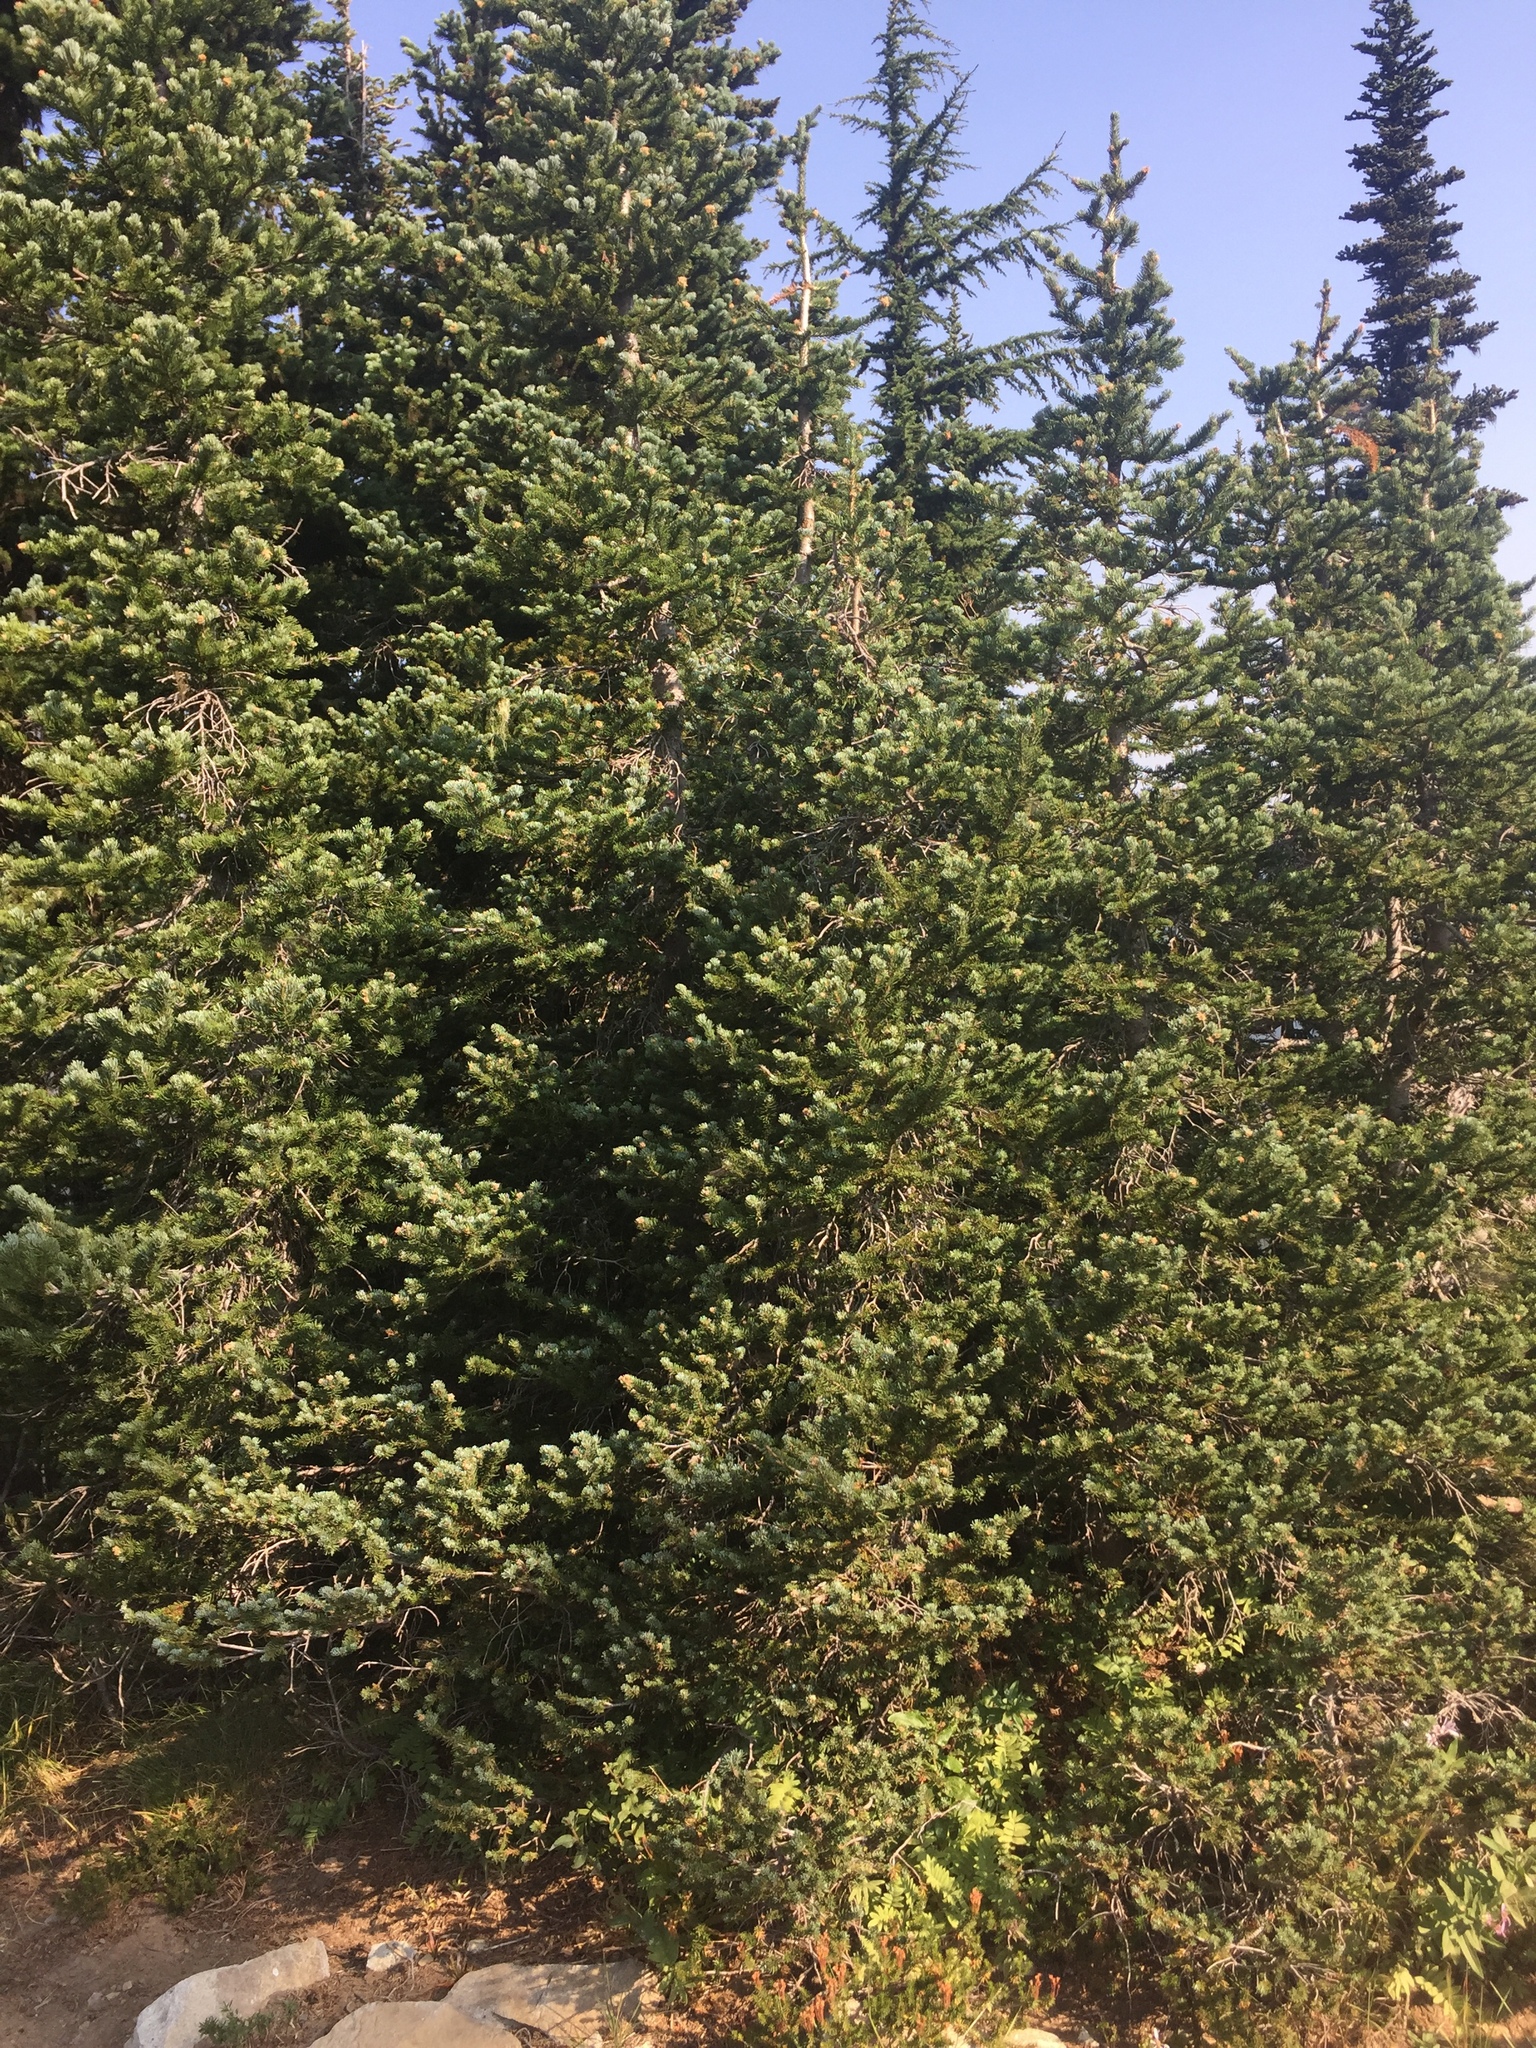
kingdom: Plantae
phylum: Tracheophyta
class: Pinopsida
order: Pinales
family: Pinaceae
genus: Abies
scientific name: Abies lasiocarpa
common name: Subalpine fir
